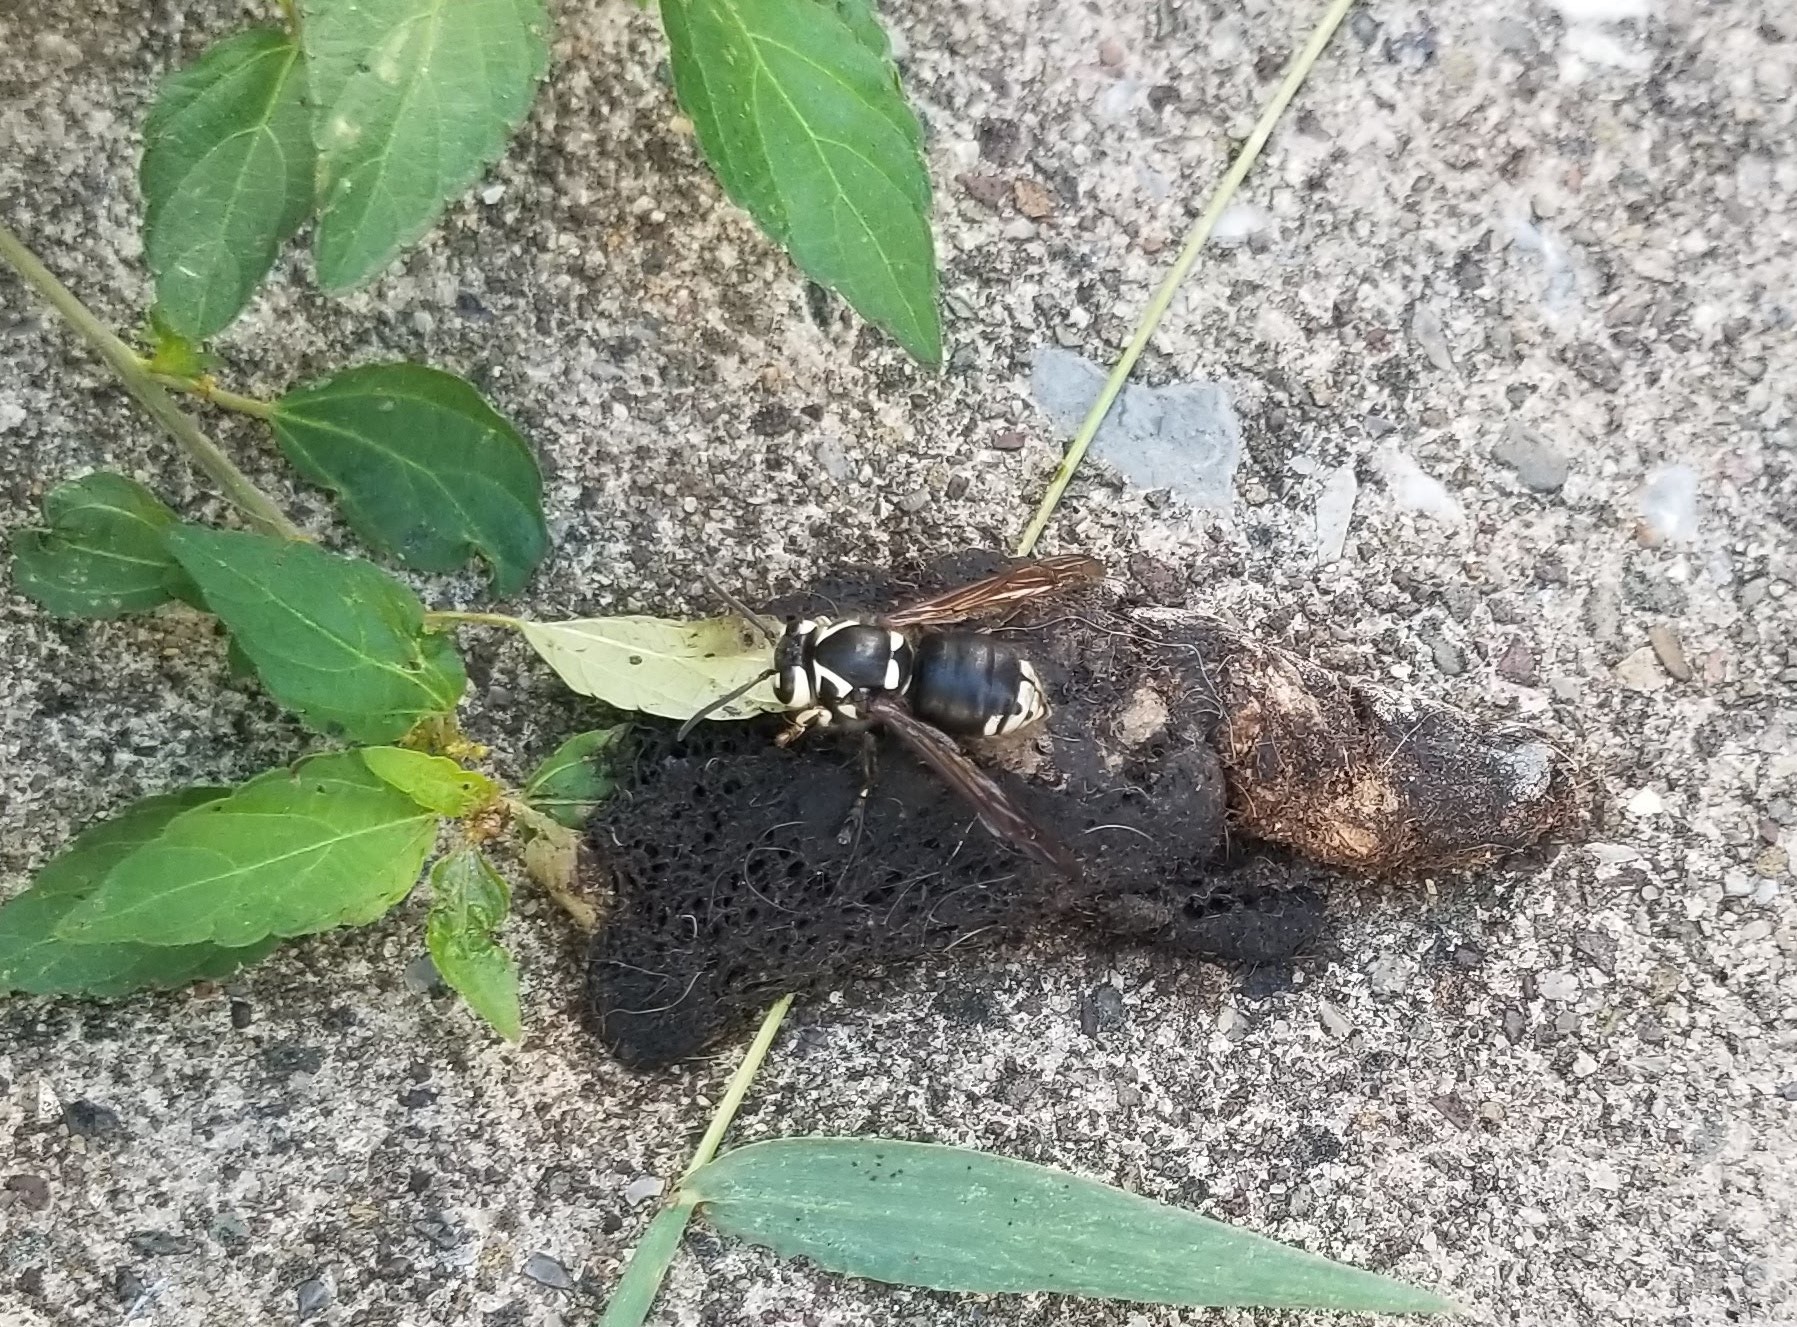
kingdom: Animalia
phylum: Arthropoda
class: Insecta
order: Hymenoptera
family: Vespidae
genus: Dolichovespula
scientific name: Dolichovespula maculata
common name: Bald-faced hornet
